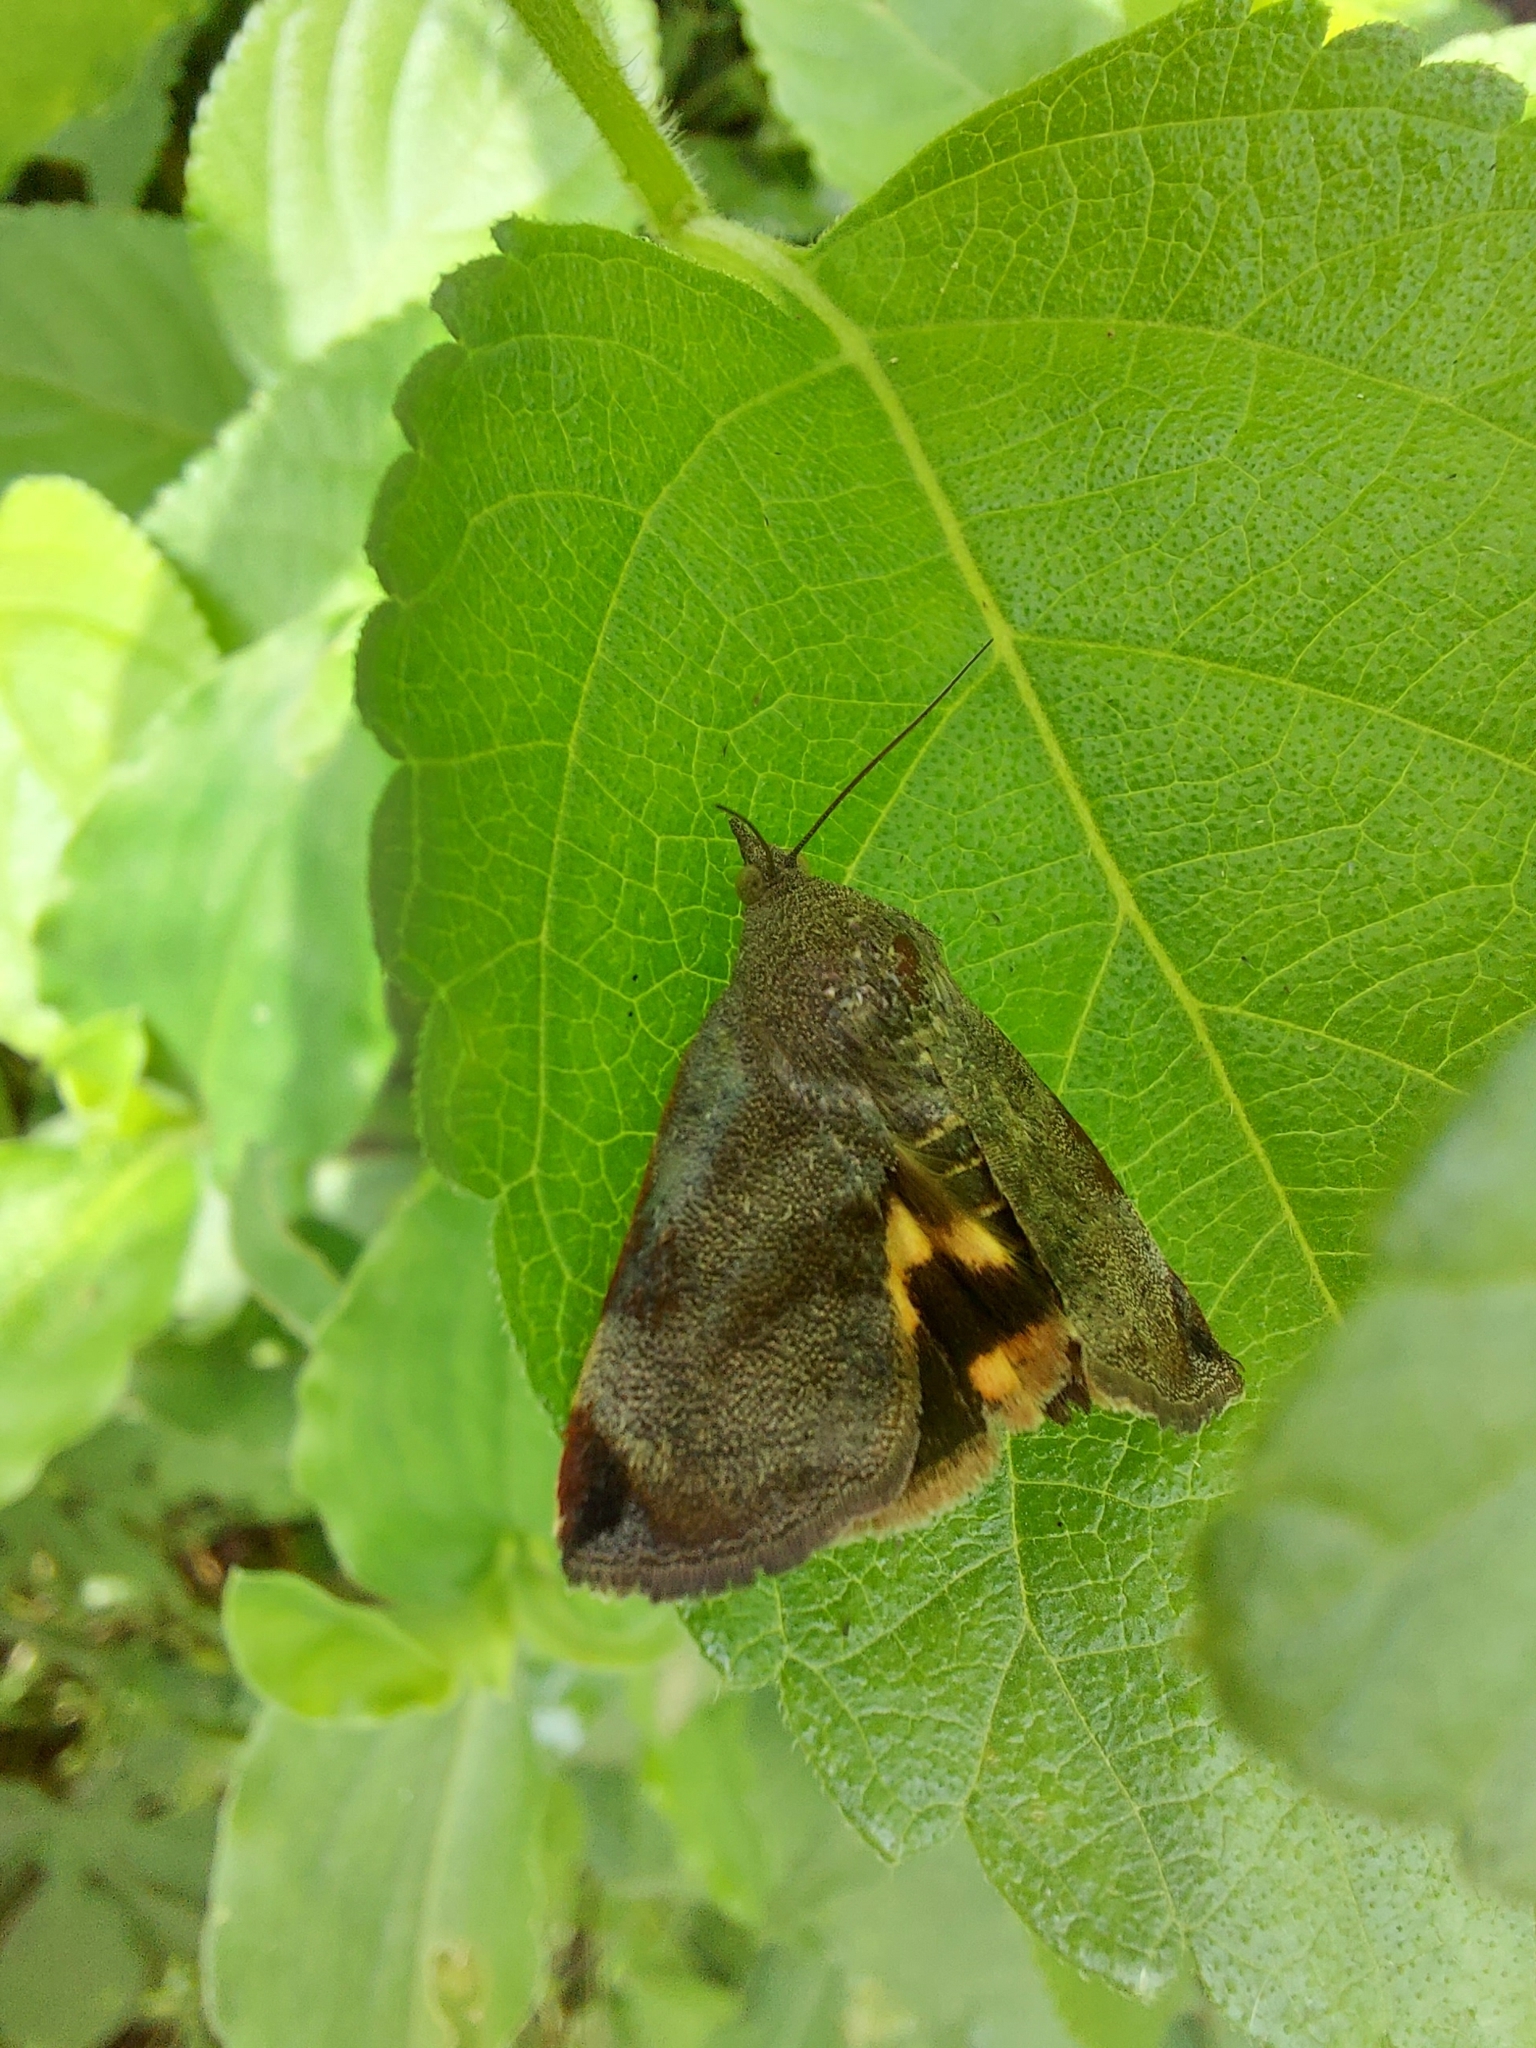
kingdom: Animalia
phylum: Arthropoda
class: Insecta
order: Lepidoptera
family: Hyblaeidae
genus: Hyblaea
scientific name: Hyblaea puera
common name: Teak defoliator moth
